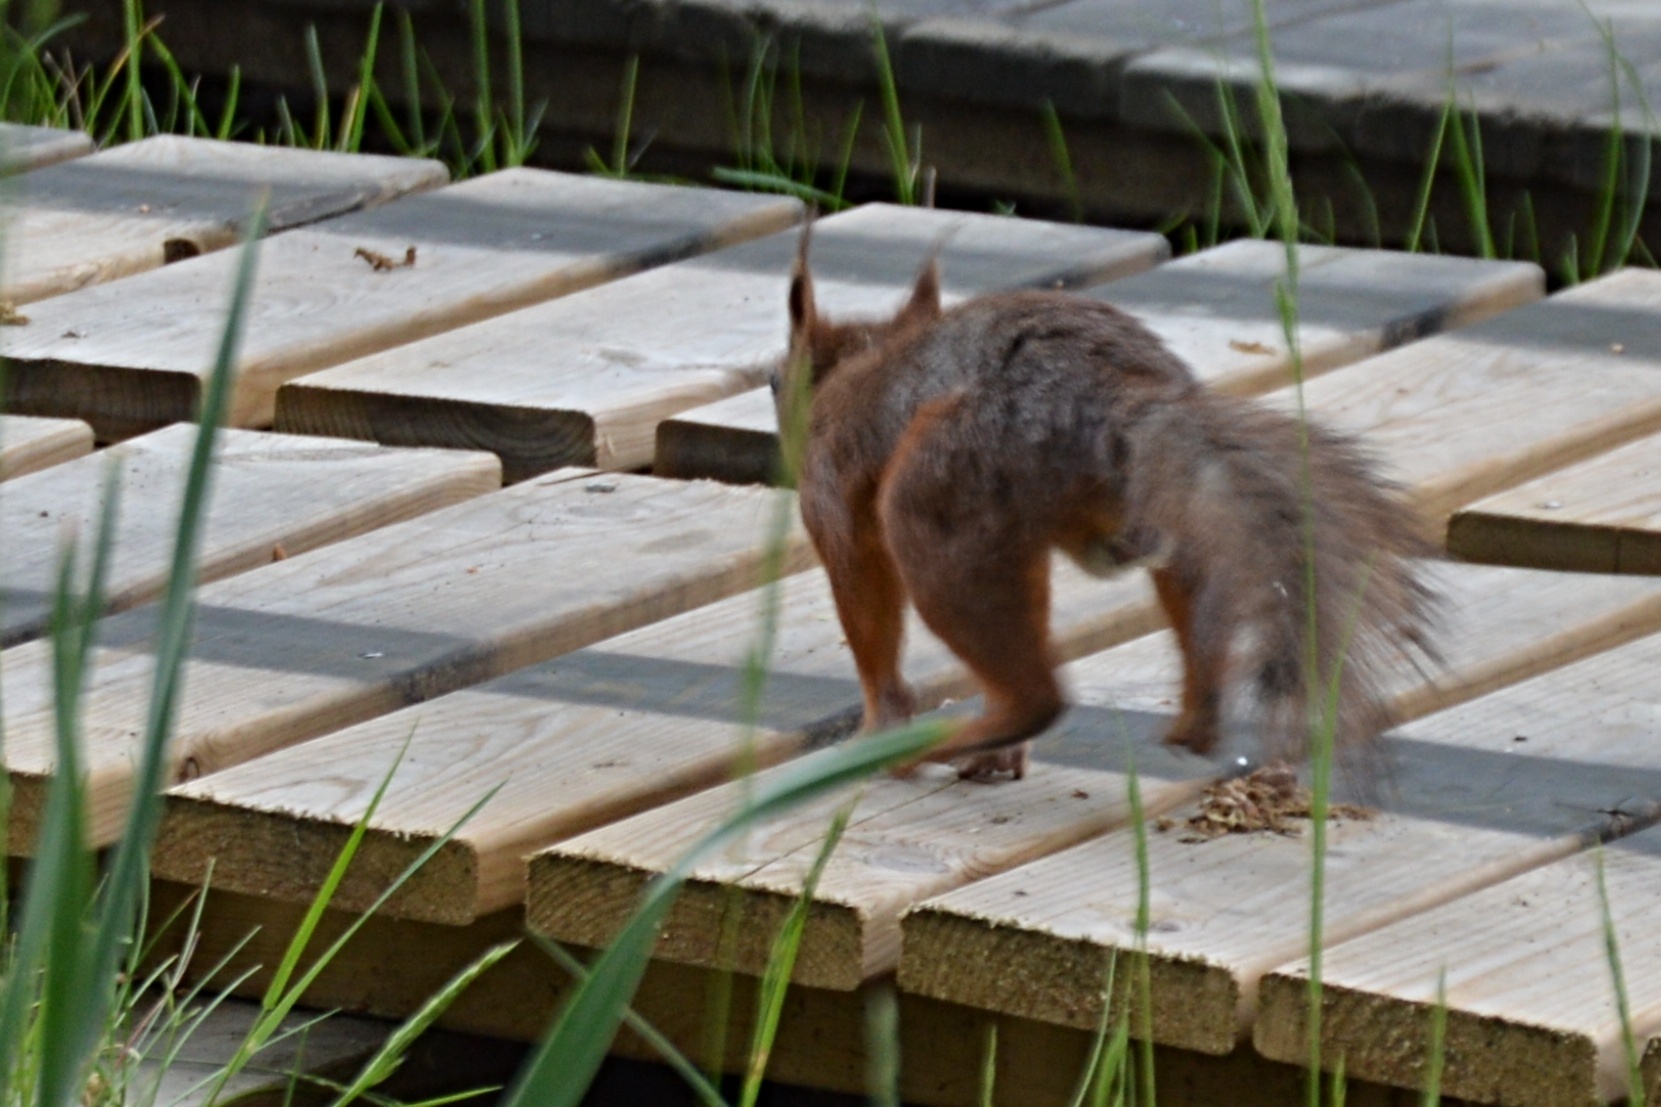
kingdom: Animalia
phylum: Chordata
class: Mammalia
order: Rodentia
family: Sciuridae
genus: Sciurus
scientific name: Sciurus vulgaris
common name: Eurasian red squirrel
